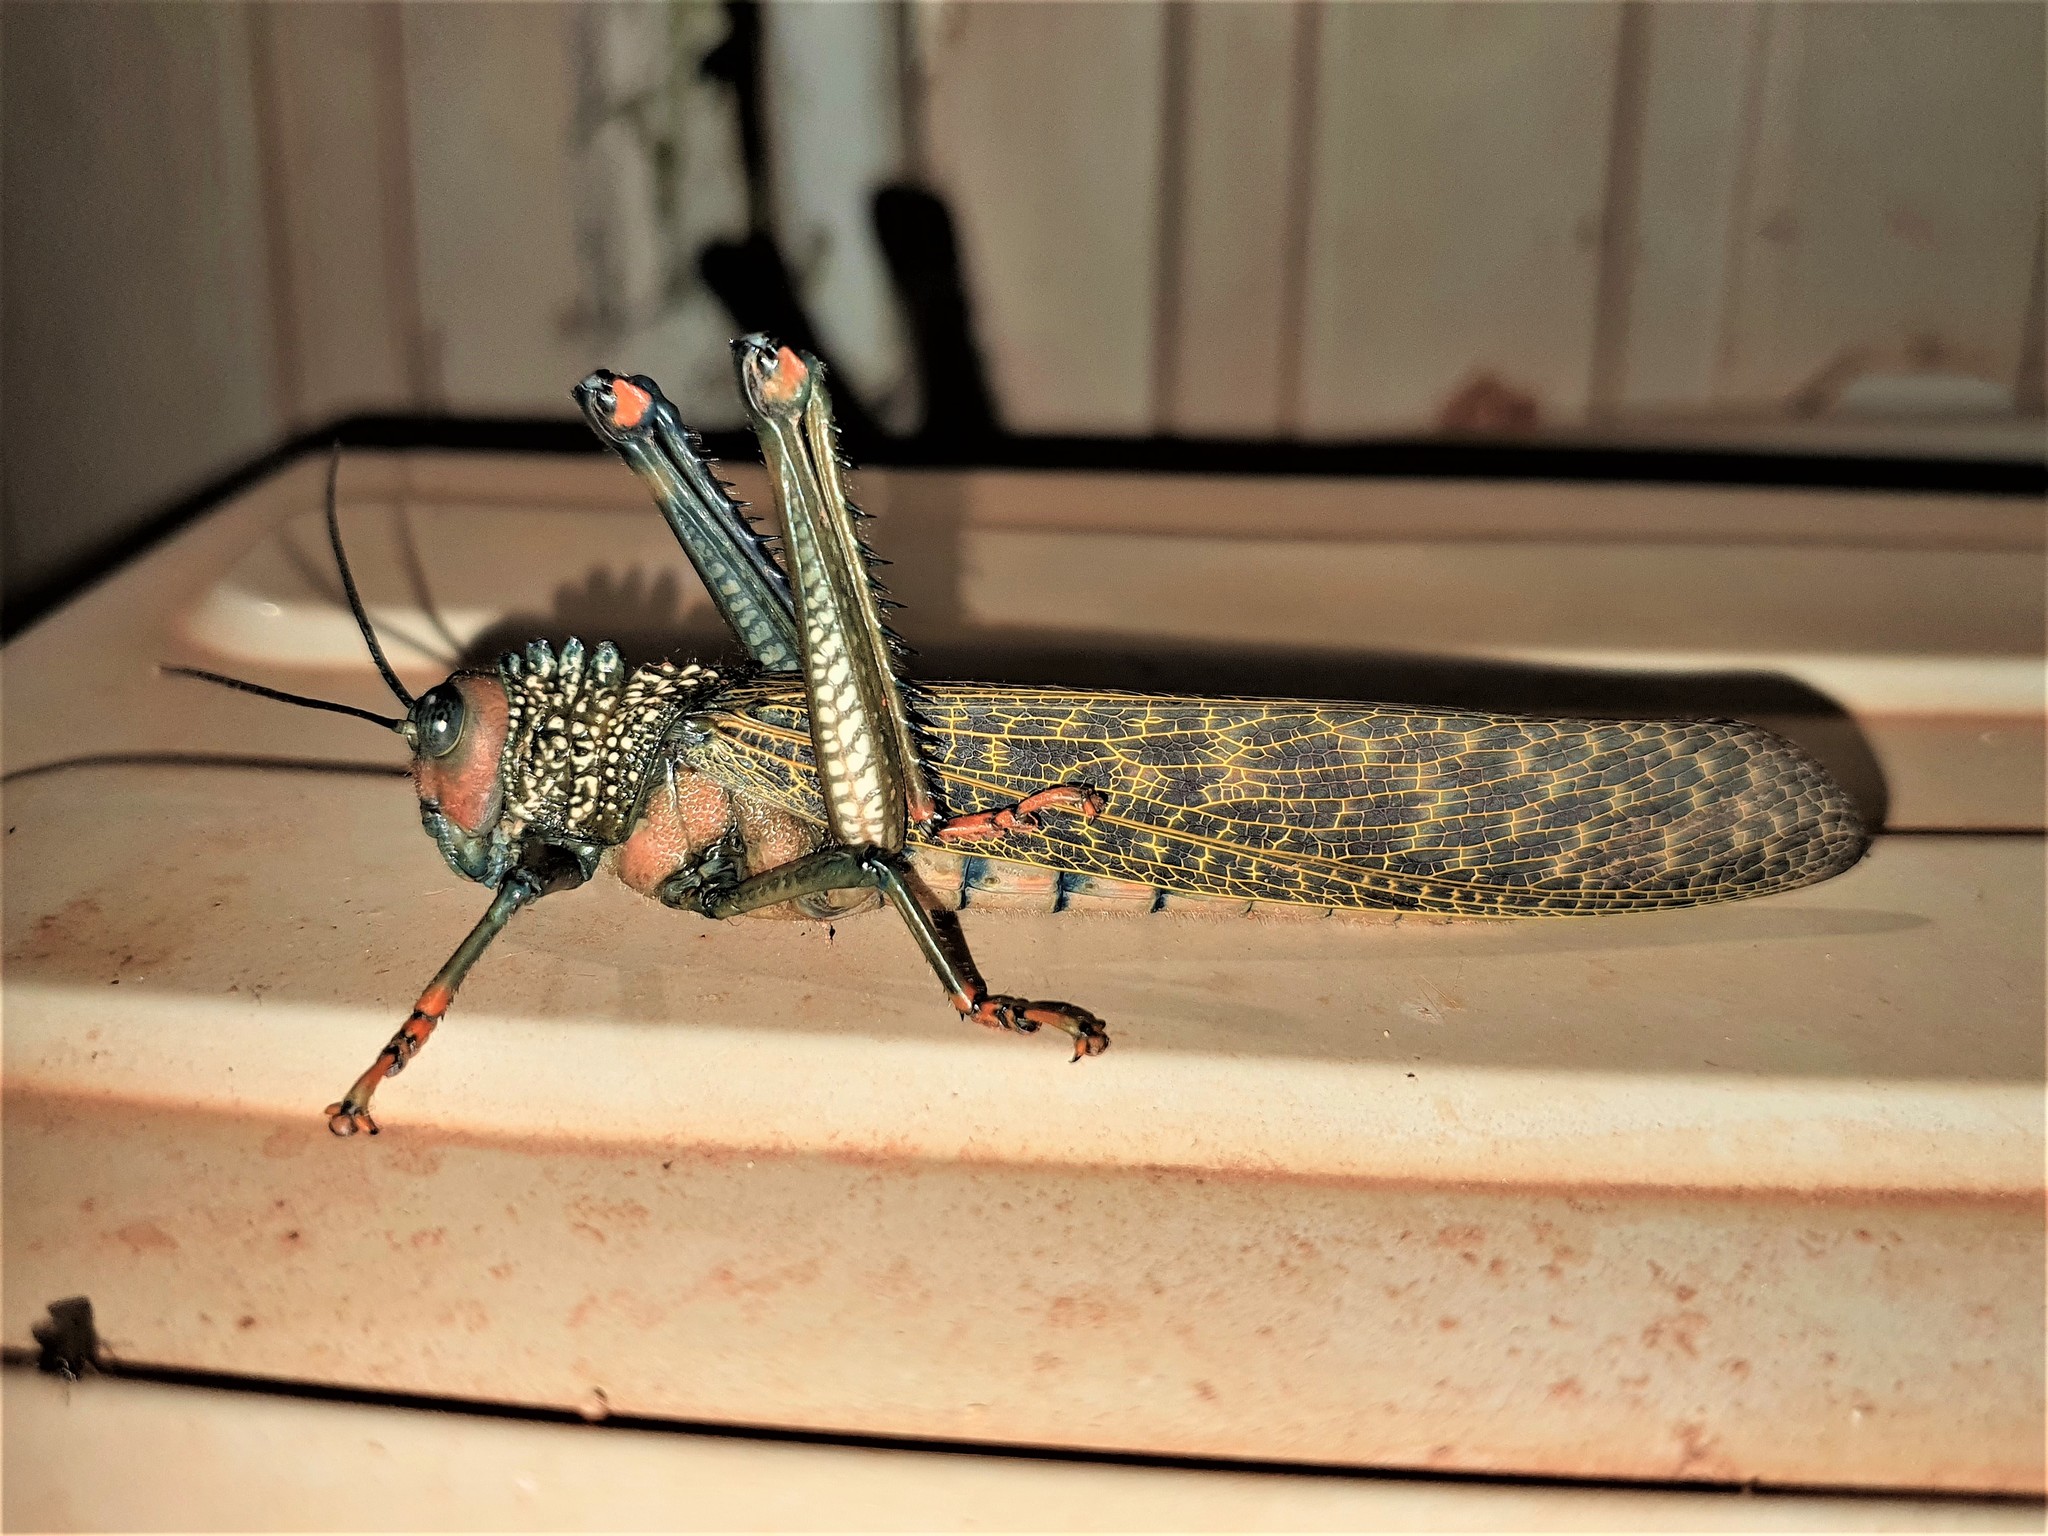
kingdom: Animalia
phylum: Arthropoda
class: Insecta
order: Orthoptera
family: Romaleidae
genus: Tropidacris
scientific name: Tropidacris cristata
